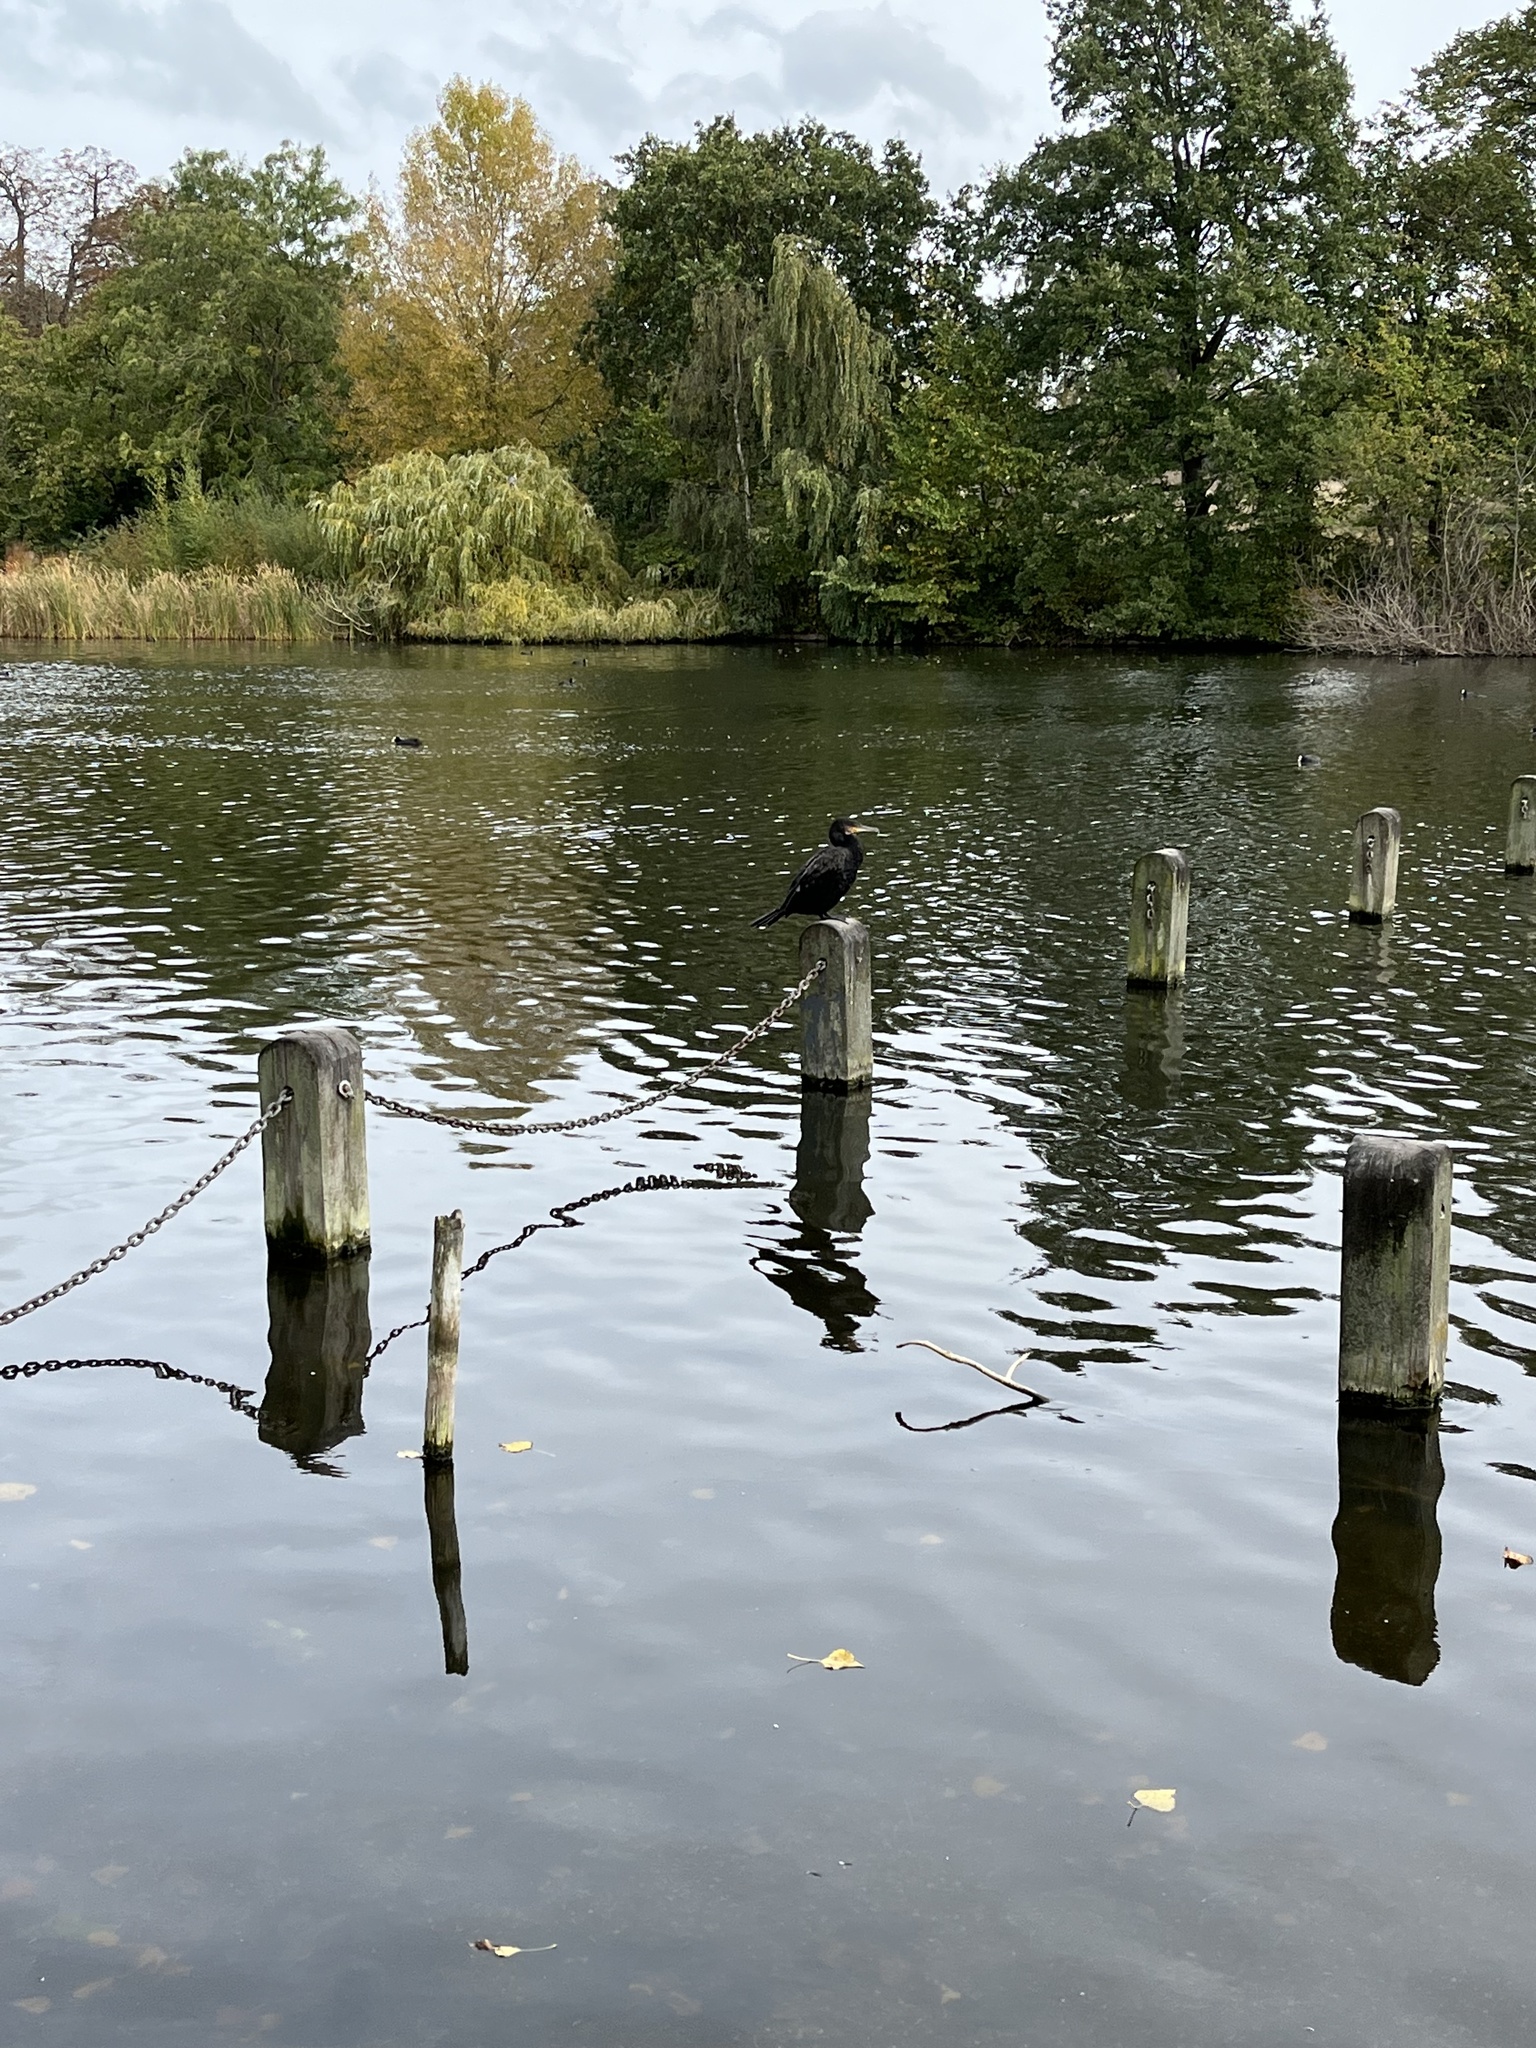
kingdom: Animalia
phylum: Chordata
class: Aves
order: Suliformes
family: Phalacrocoracidae
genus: Phalacrocorax
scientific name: Phalacrocorax carbo
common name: Great cormorant
